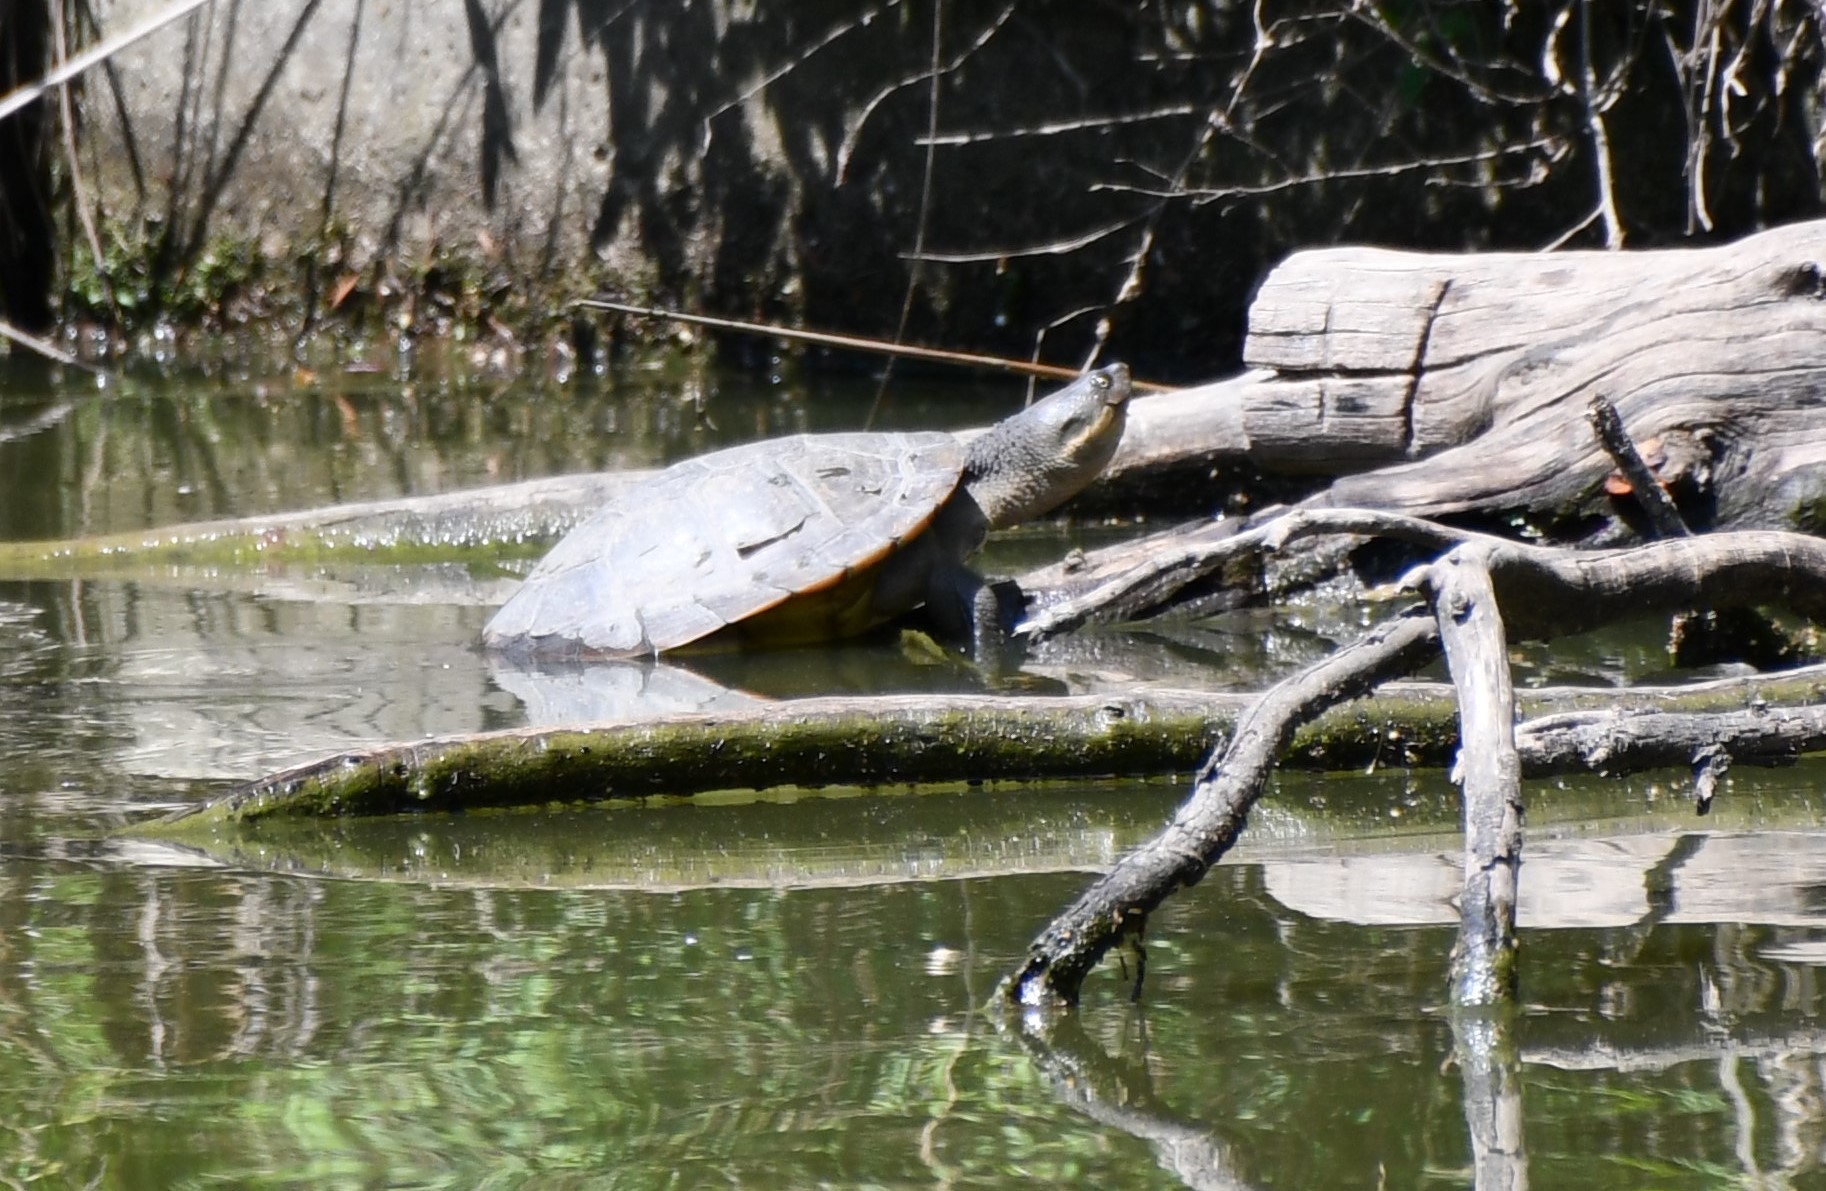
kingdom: Animalia
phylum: Chordata
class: Testudines
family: Chelidae
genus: Emydura
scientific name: Emydura macquarii
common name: Murray river turtle
